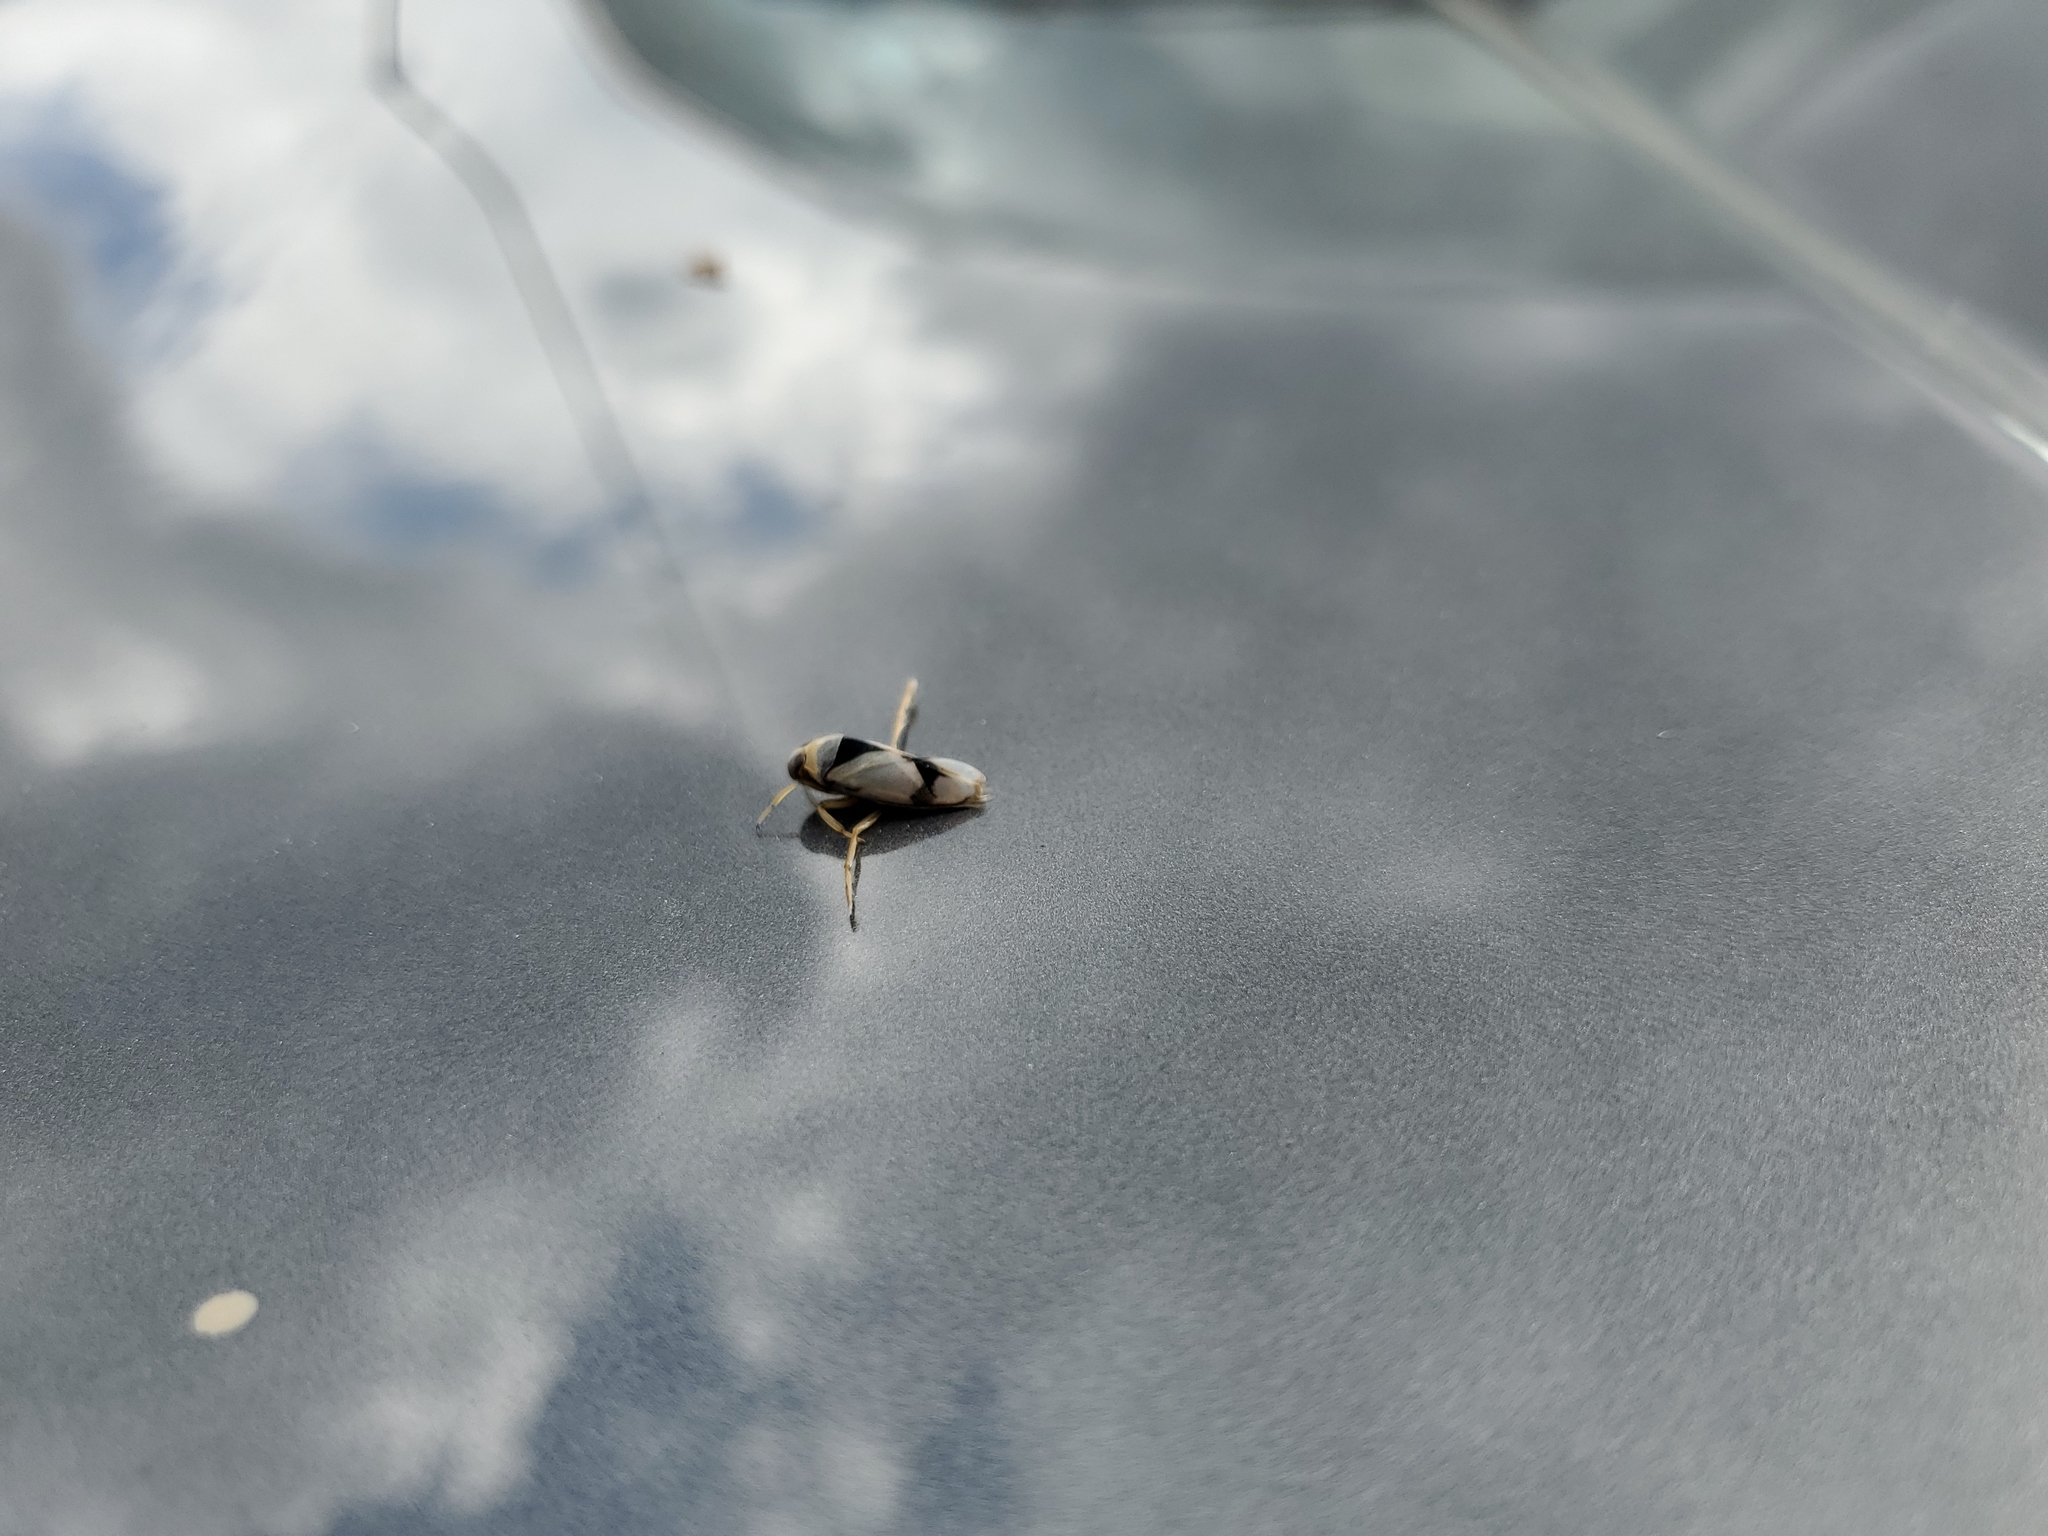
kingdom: Animalia
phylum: Arthropoda
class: Insecta
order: Hemiptera
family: Notonectidae
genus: Notonecta
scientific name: Notonecta undulata
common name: Grousewinged backswimmer
